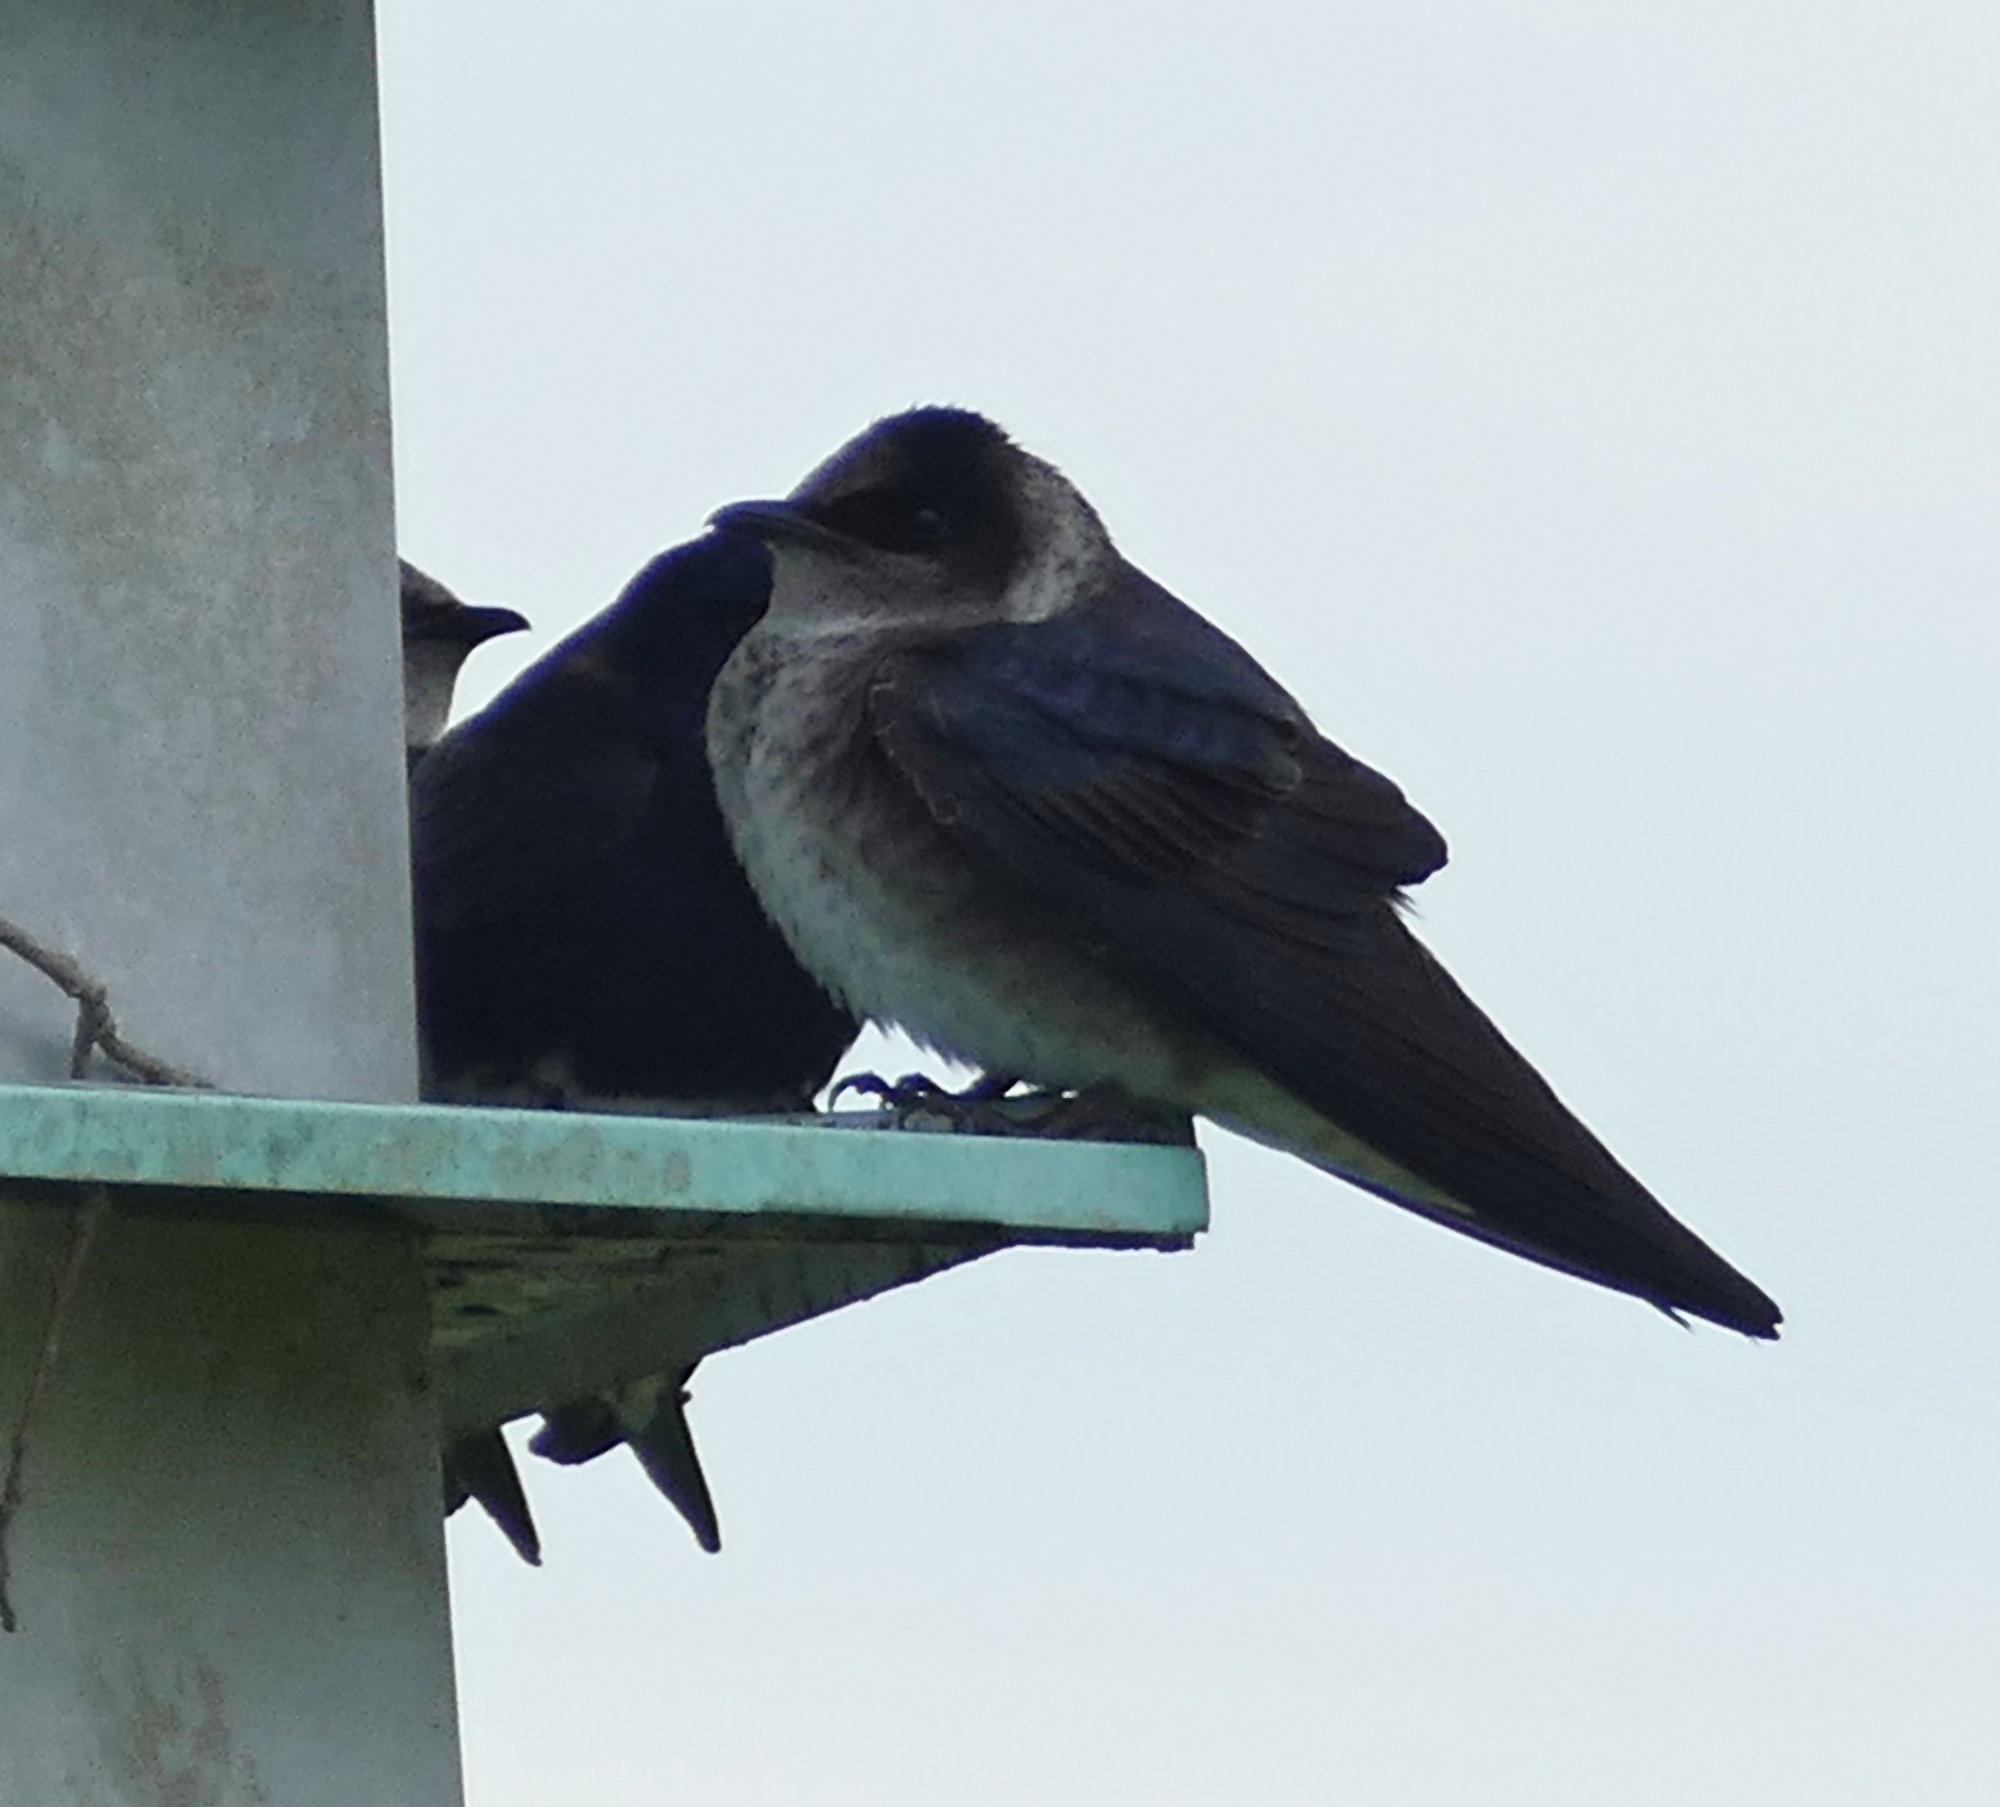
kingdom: Animalia
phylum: Chordata
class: Aves
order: Passeriformes
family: Hirundinidae
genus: Progne
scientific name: Progne subis
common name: Purple martin
